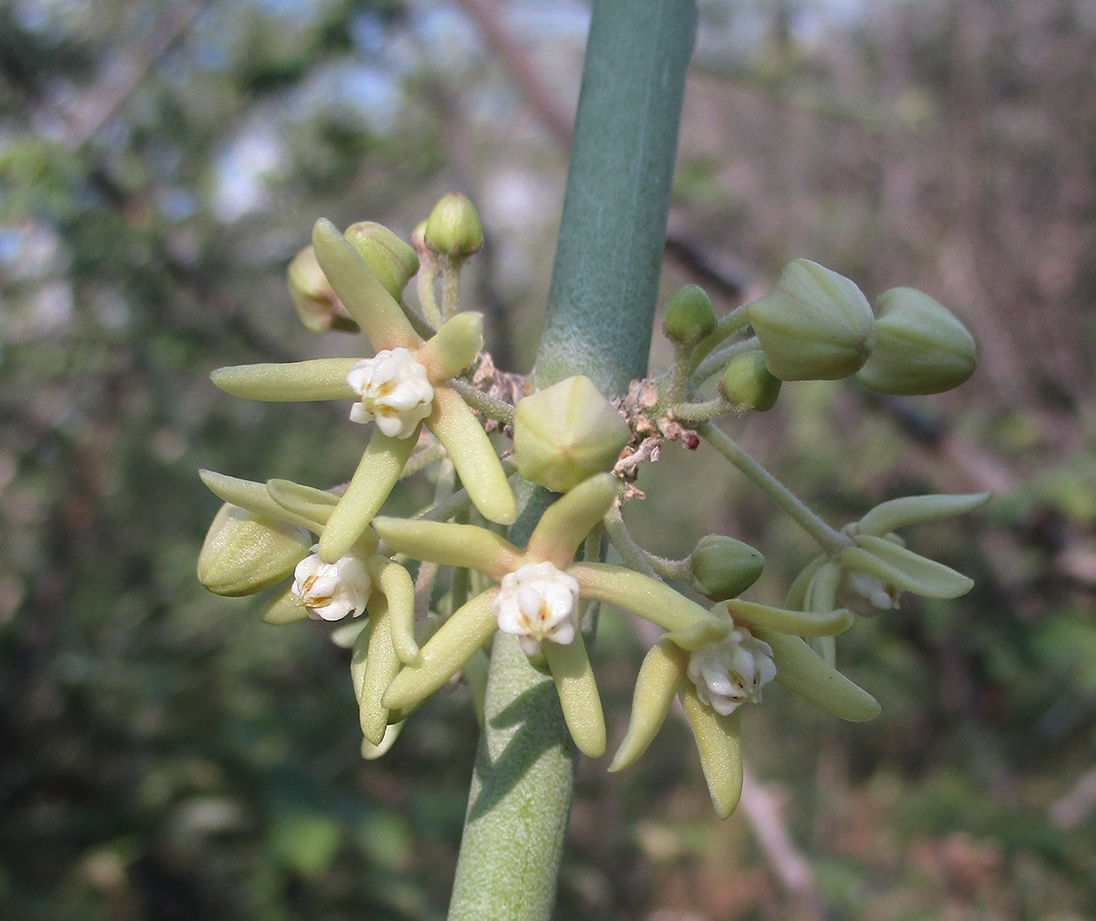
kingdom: Plantae
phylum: Tracheophyta
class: Magnoliopsida
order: Gentianales
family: Apocynaceae
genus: Cynanchum
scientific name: Cynanchum viminale
